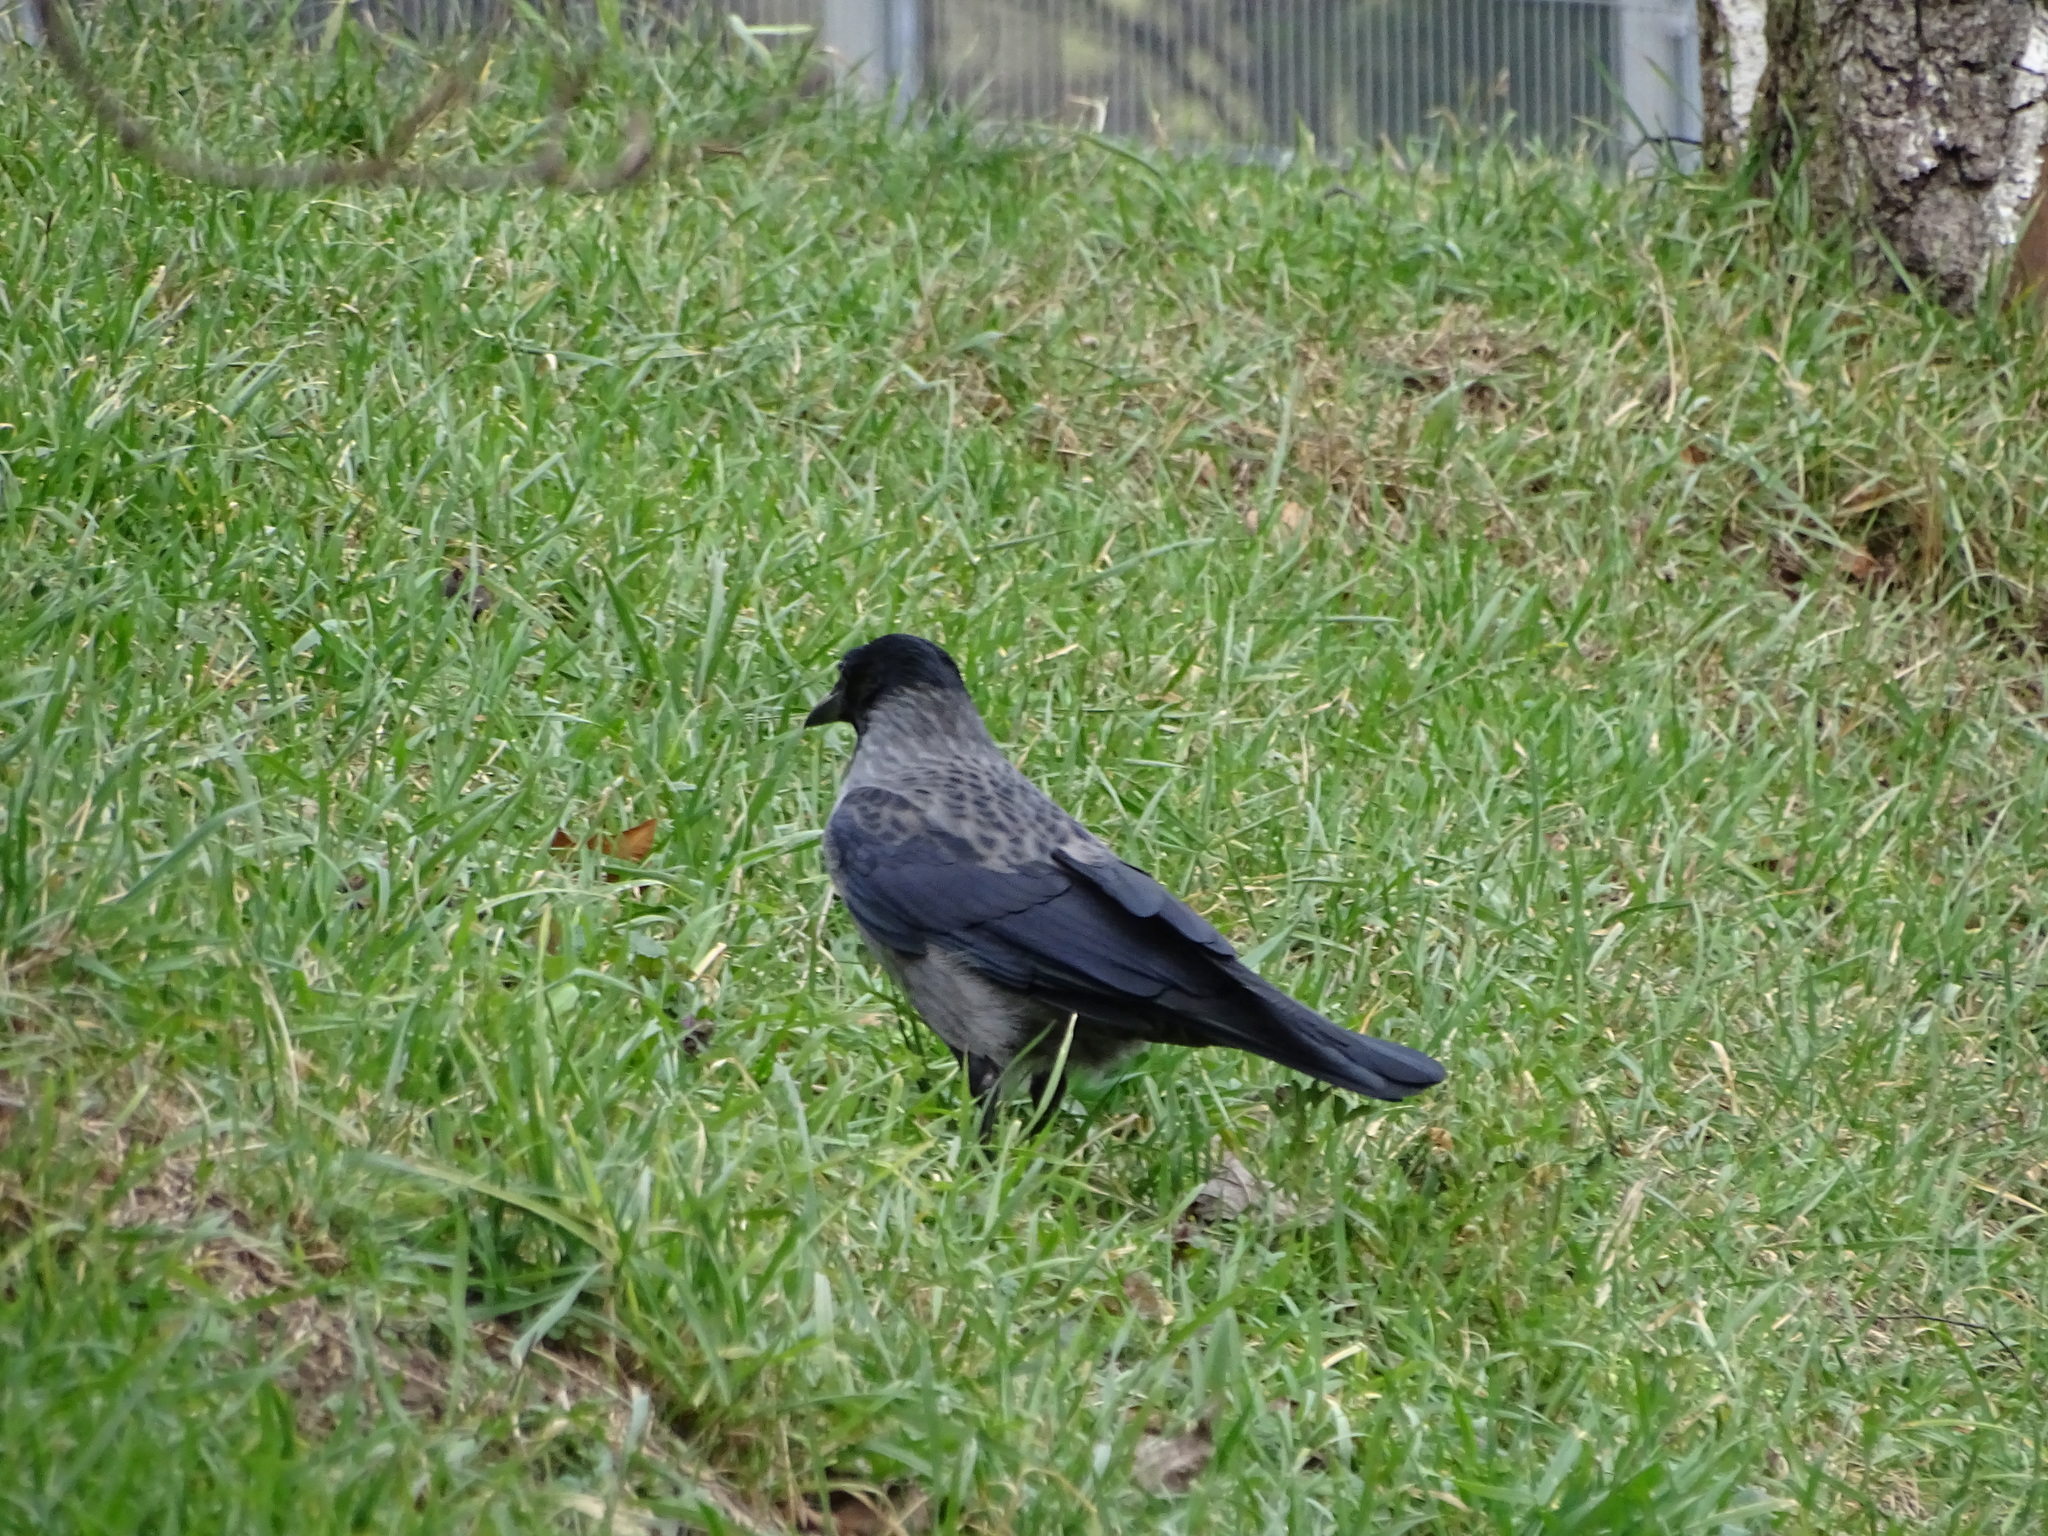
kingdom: Animalia
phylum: Chordata
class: Aves
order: Passeriformes
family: Corvidae
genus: Corvus
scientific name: Corvus
